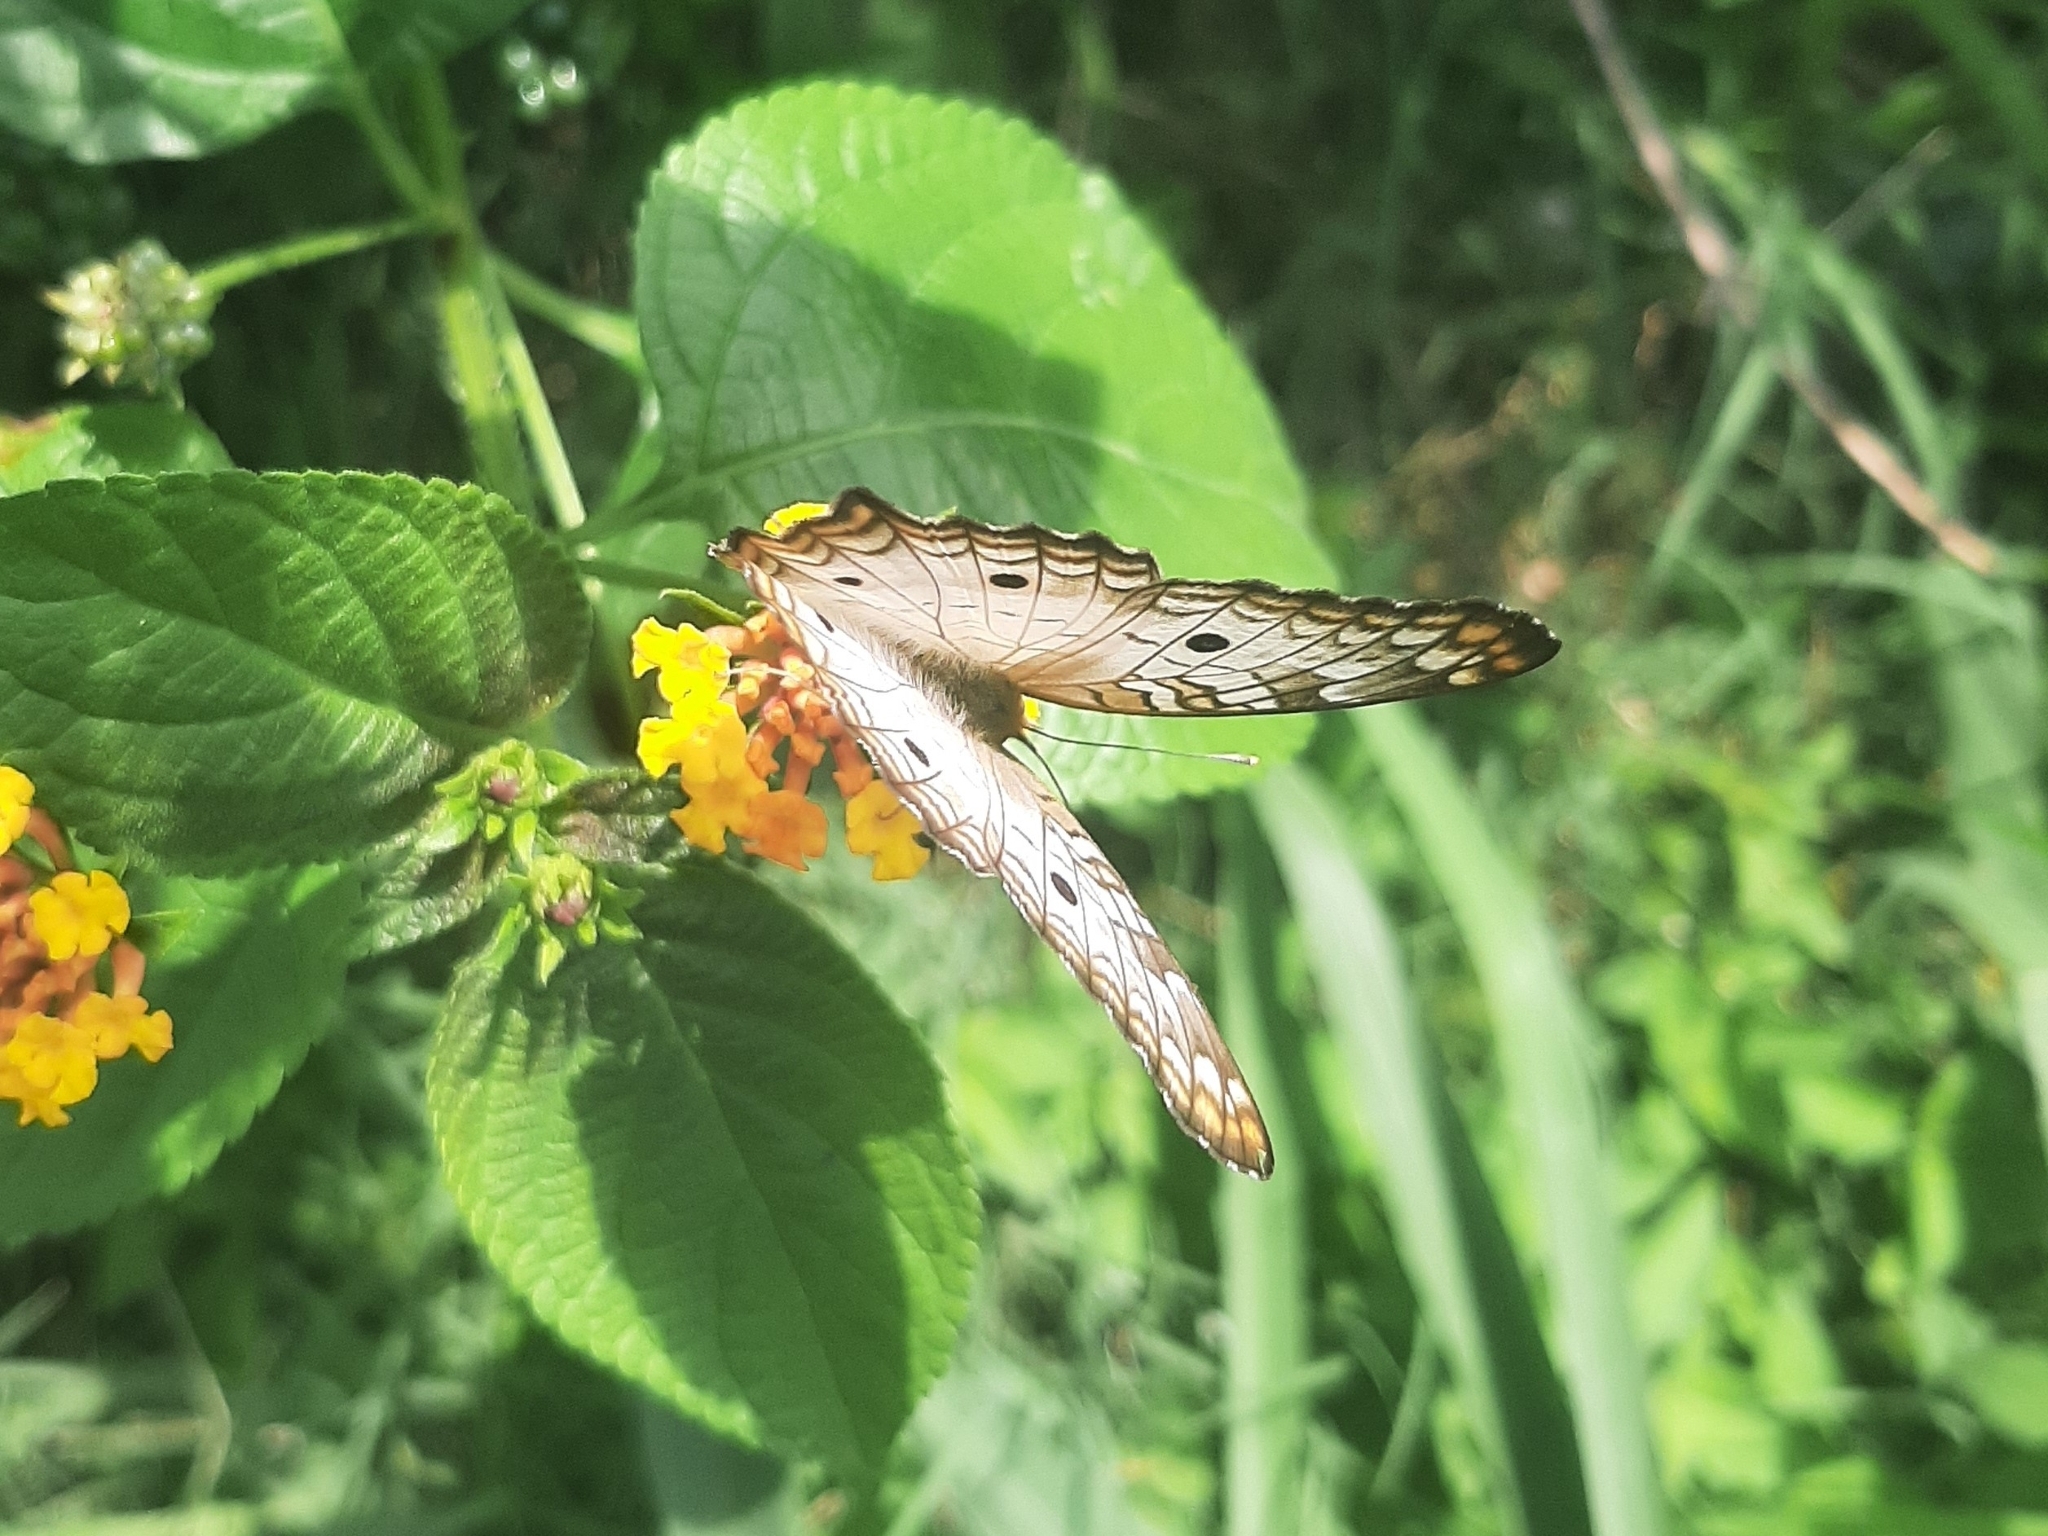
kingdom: Animalia
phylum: Arthropoda
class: Insecta
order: Lepidoptera
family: Nymphalidae
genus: Anartia
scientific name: Anartia jatrophae
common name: White peacock
